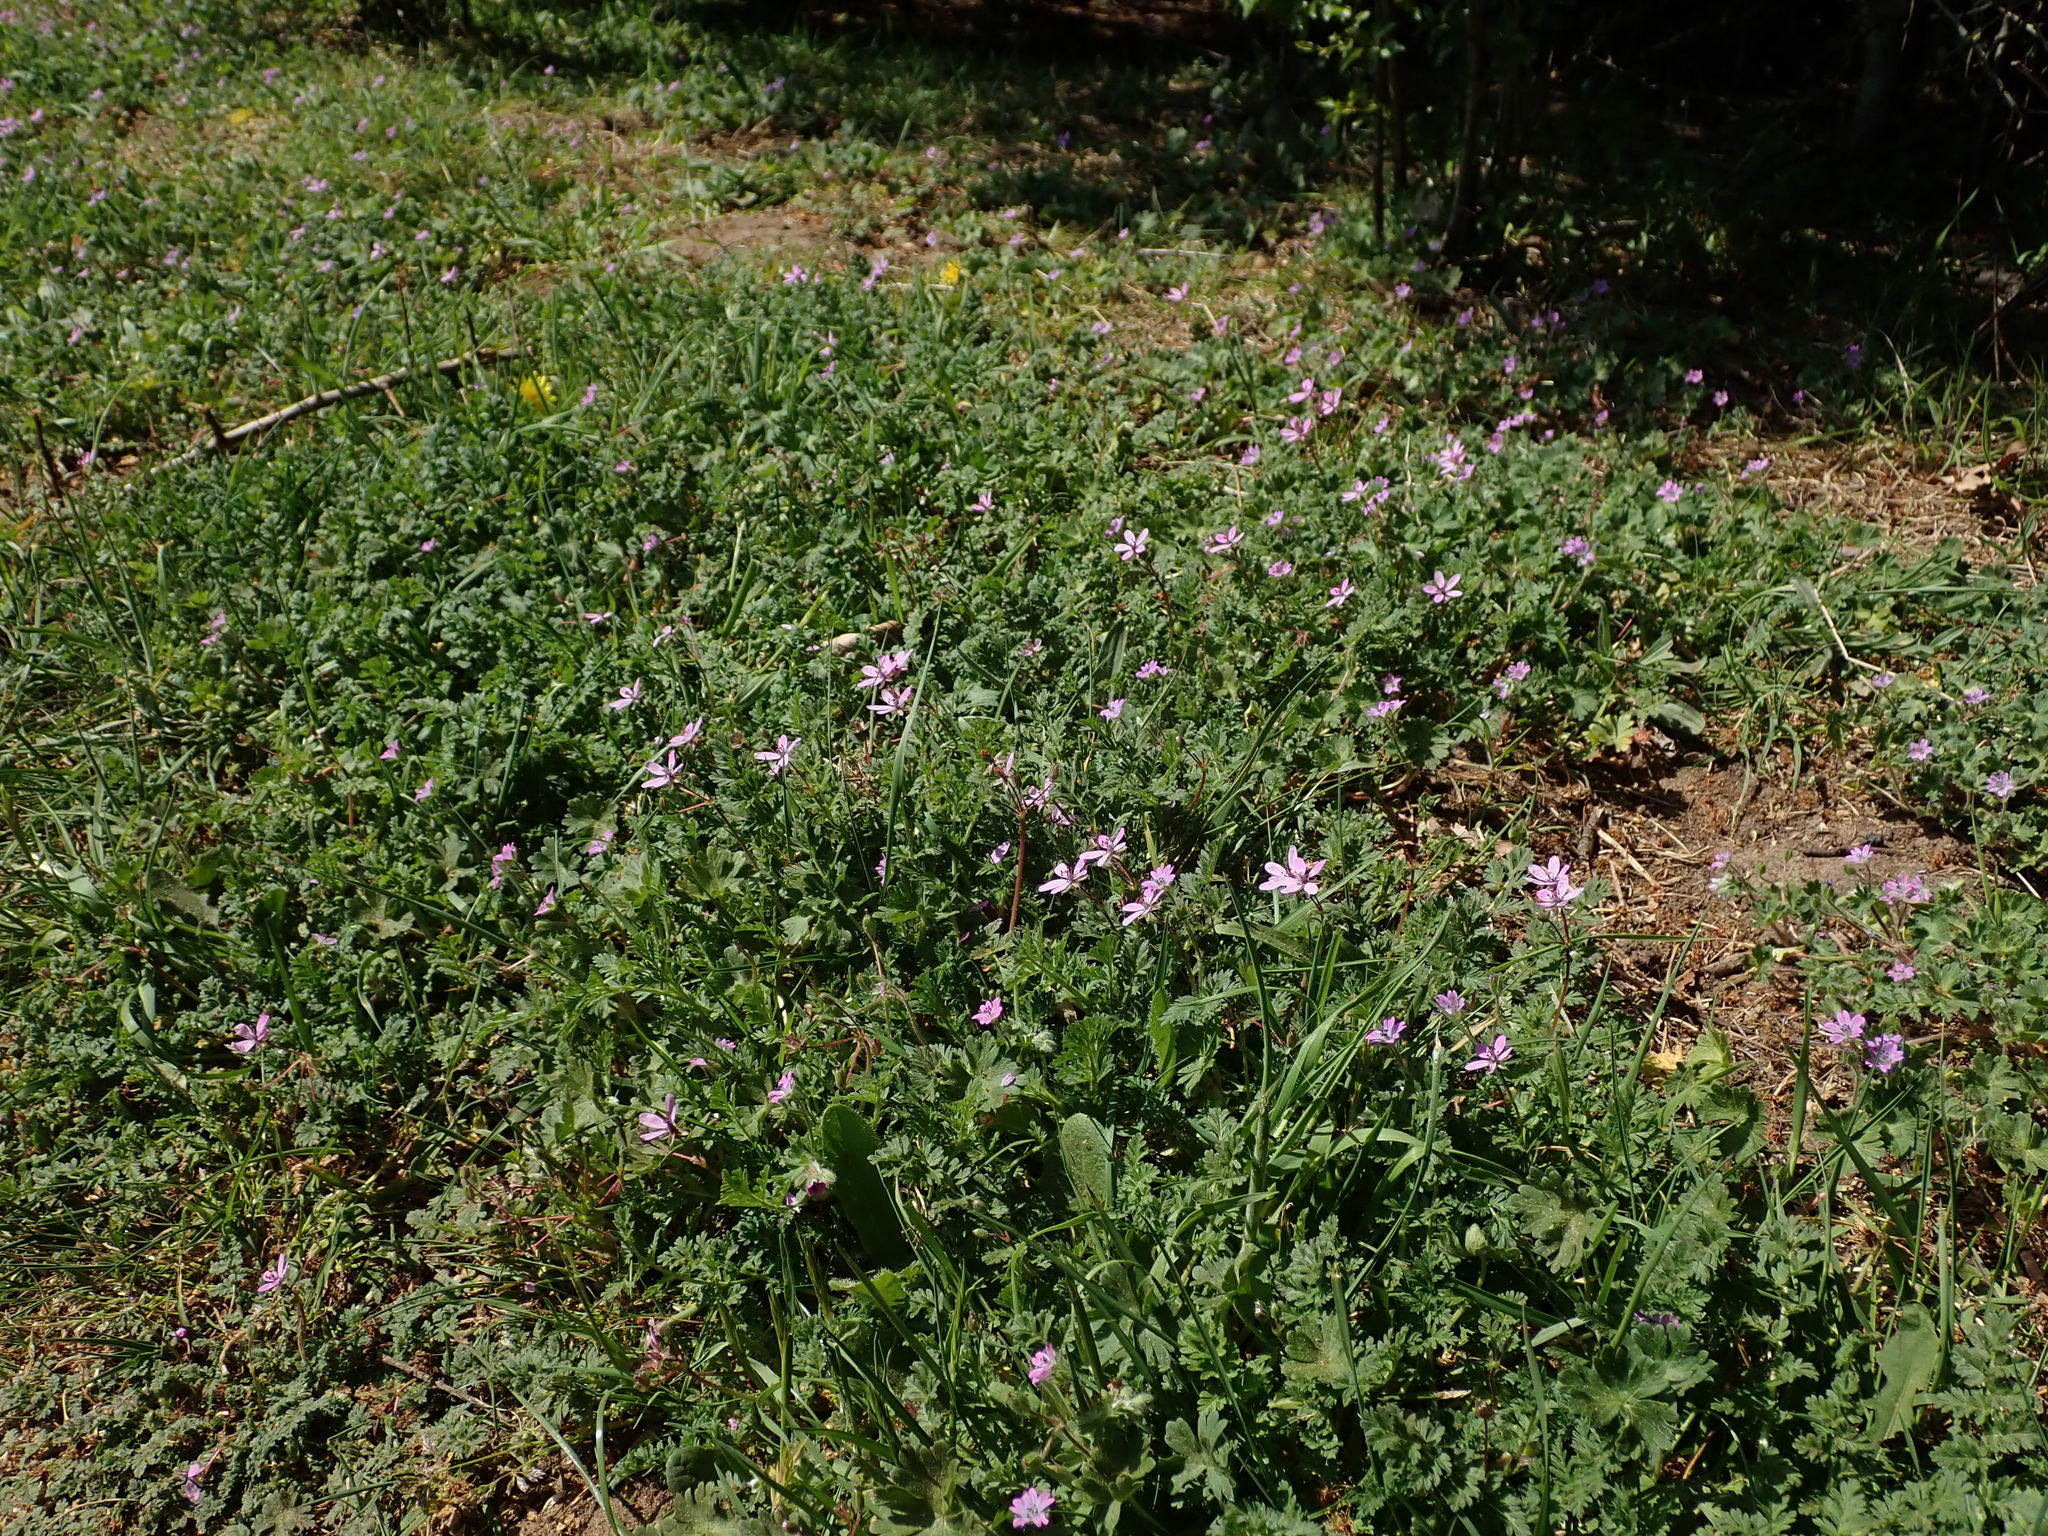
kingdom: Plantae
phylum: Tracheophyta
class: Magnoliopsida
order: Geraniales
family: Geraniaceae
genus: Erodium
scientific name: Erodium cicutarium
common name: Common stork's-bill
